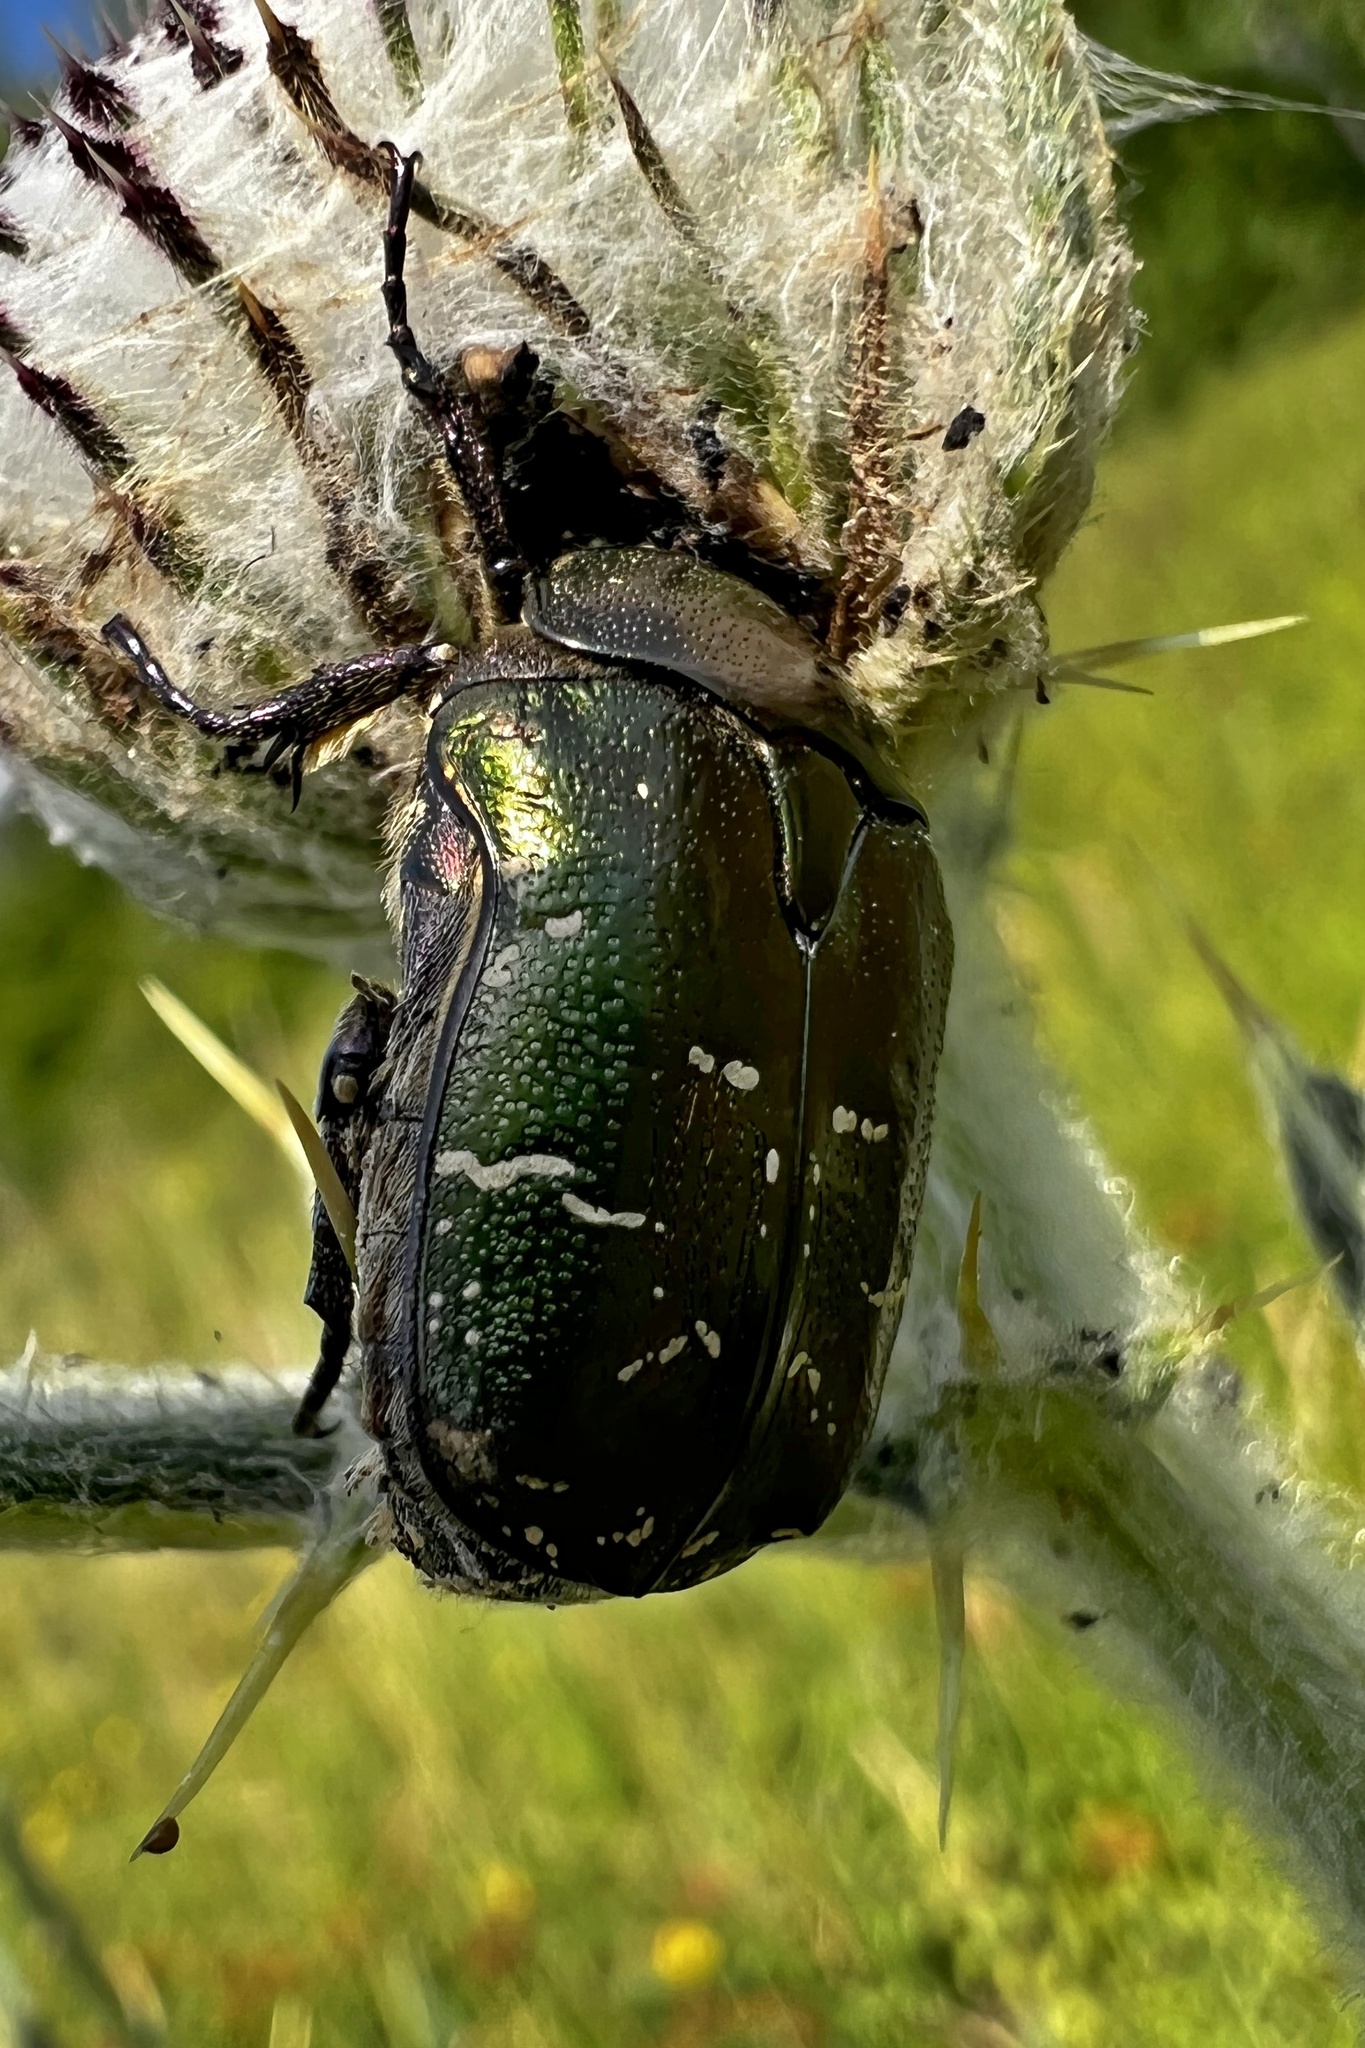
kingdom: Animalia
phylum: Arthropoda
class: Insecta
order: Coleoptera
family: Scarabaeidae
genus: Protaetia
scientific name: Protaetia cuprea
